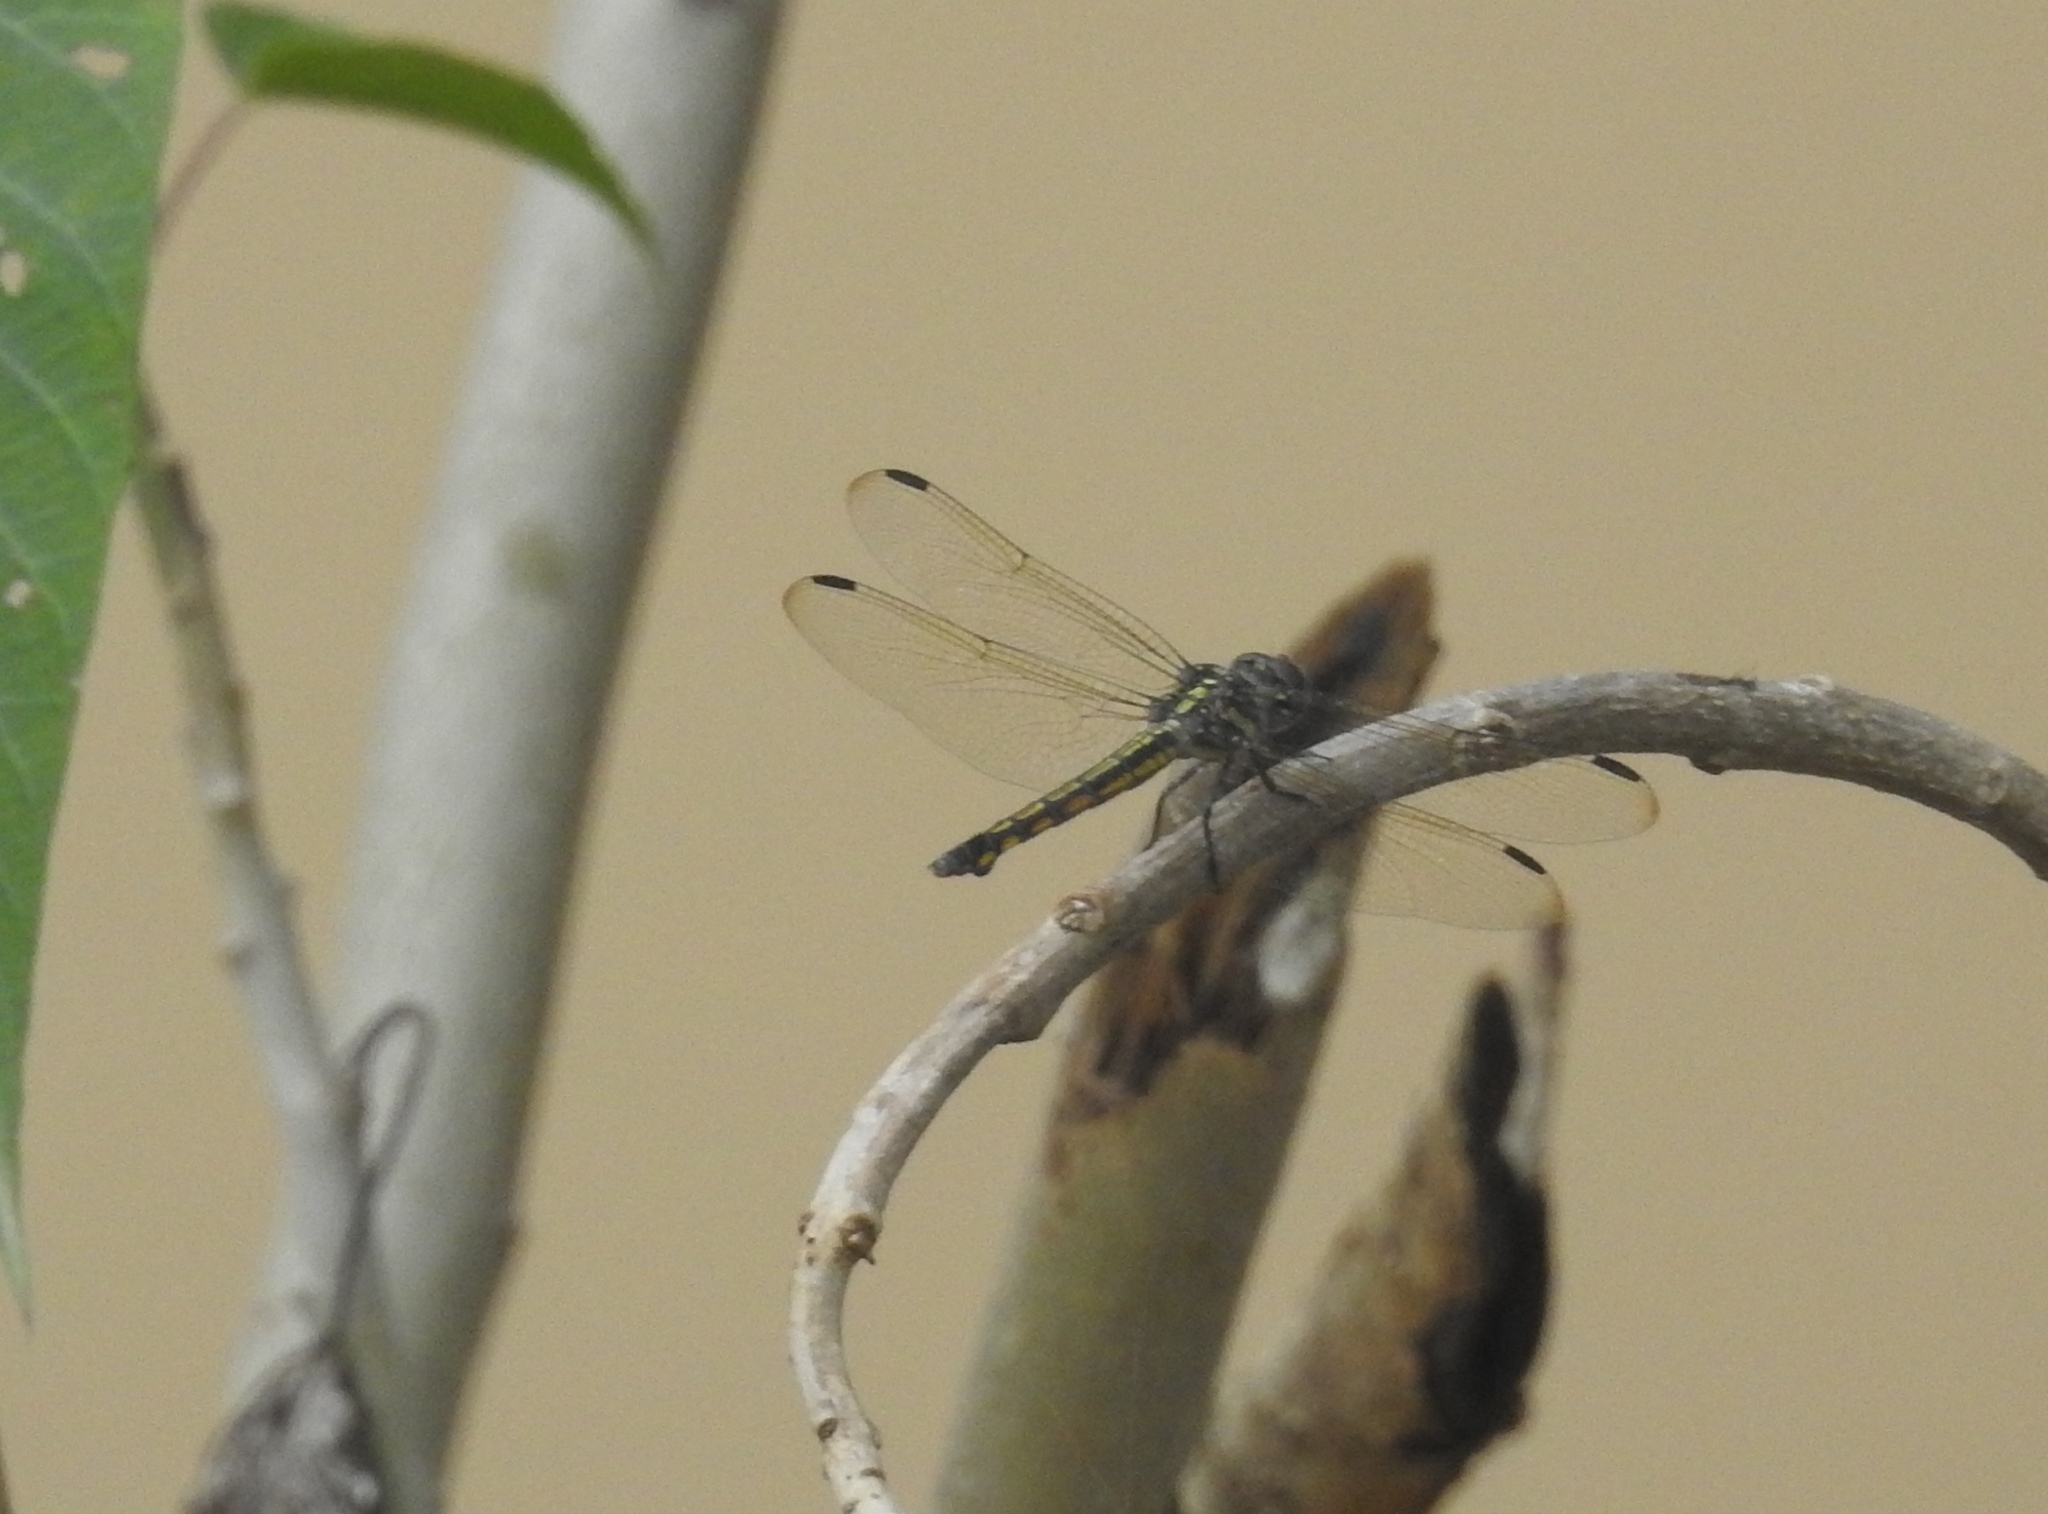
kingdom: Animalia
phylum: Arthropoda
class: Insecta
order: Odonata
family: Libellulidae
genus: Potamarcha
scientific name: Potamarcha congener
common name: Blue chaser
